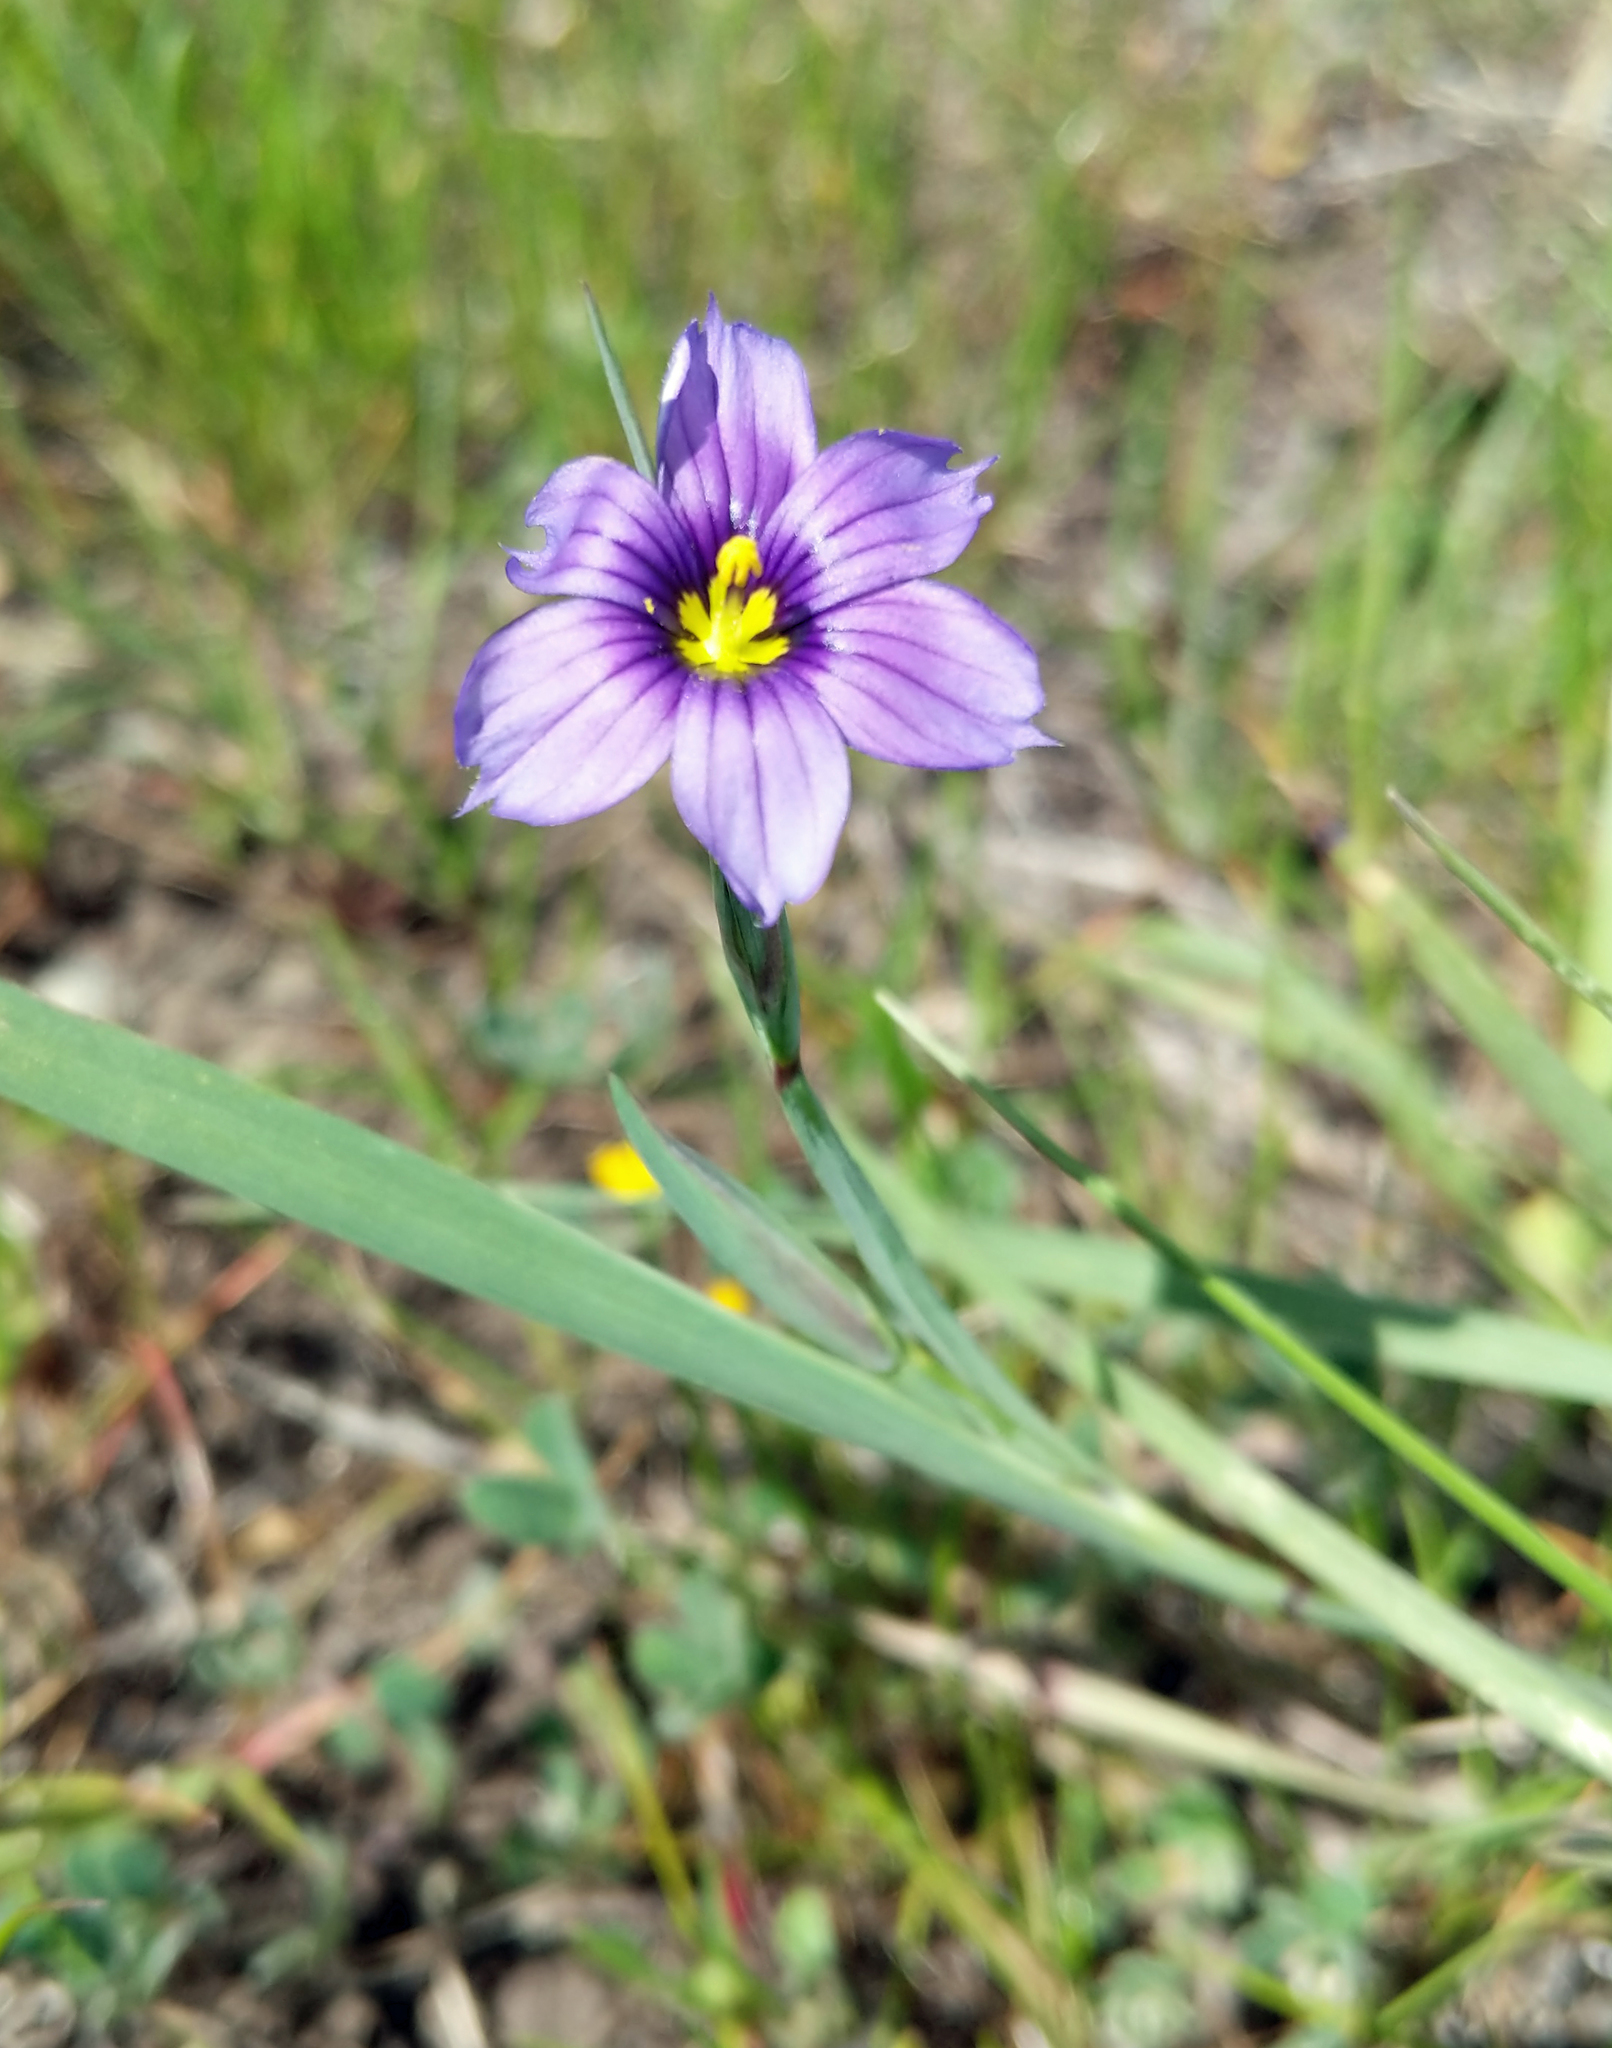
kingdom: Plantae
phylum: Tracheophyta
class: Liliopsida
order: Asparagales
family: Iridaceae
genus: Sisyrinchium
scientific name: Sisyrinchium bellum
